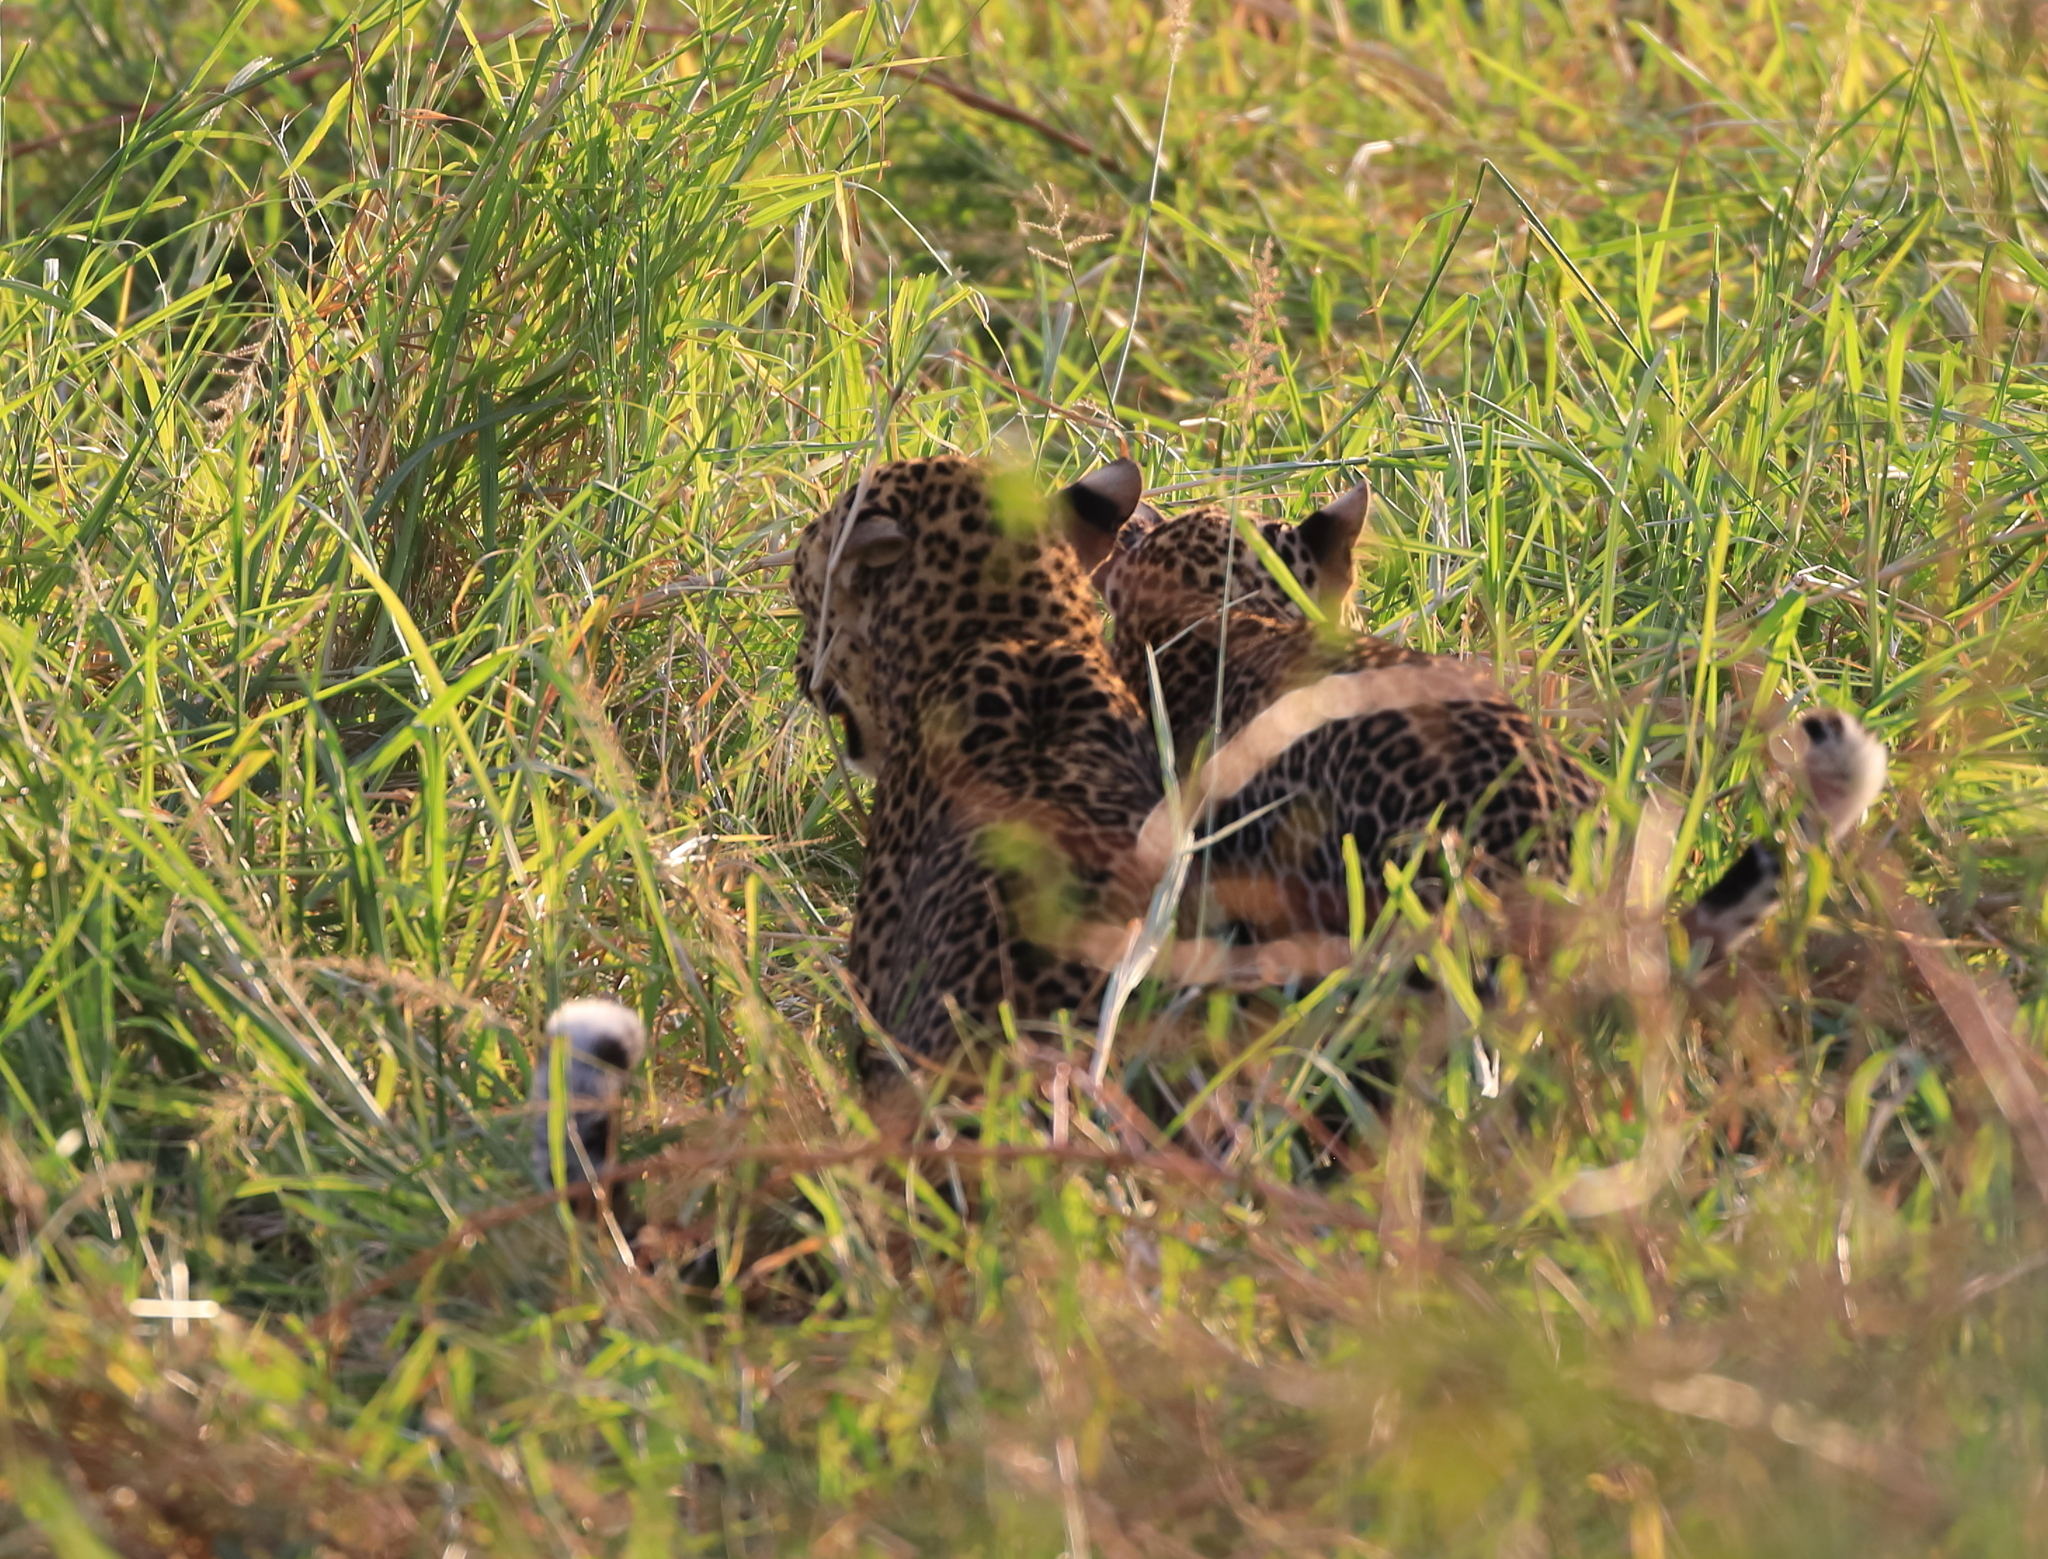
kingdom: Animalia
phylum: Chordata
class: Mammalia
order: Carnivora
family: Felidae
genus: Panthera
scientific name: Panthera pardus
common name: Leopard
